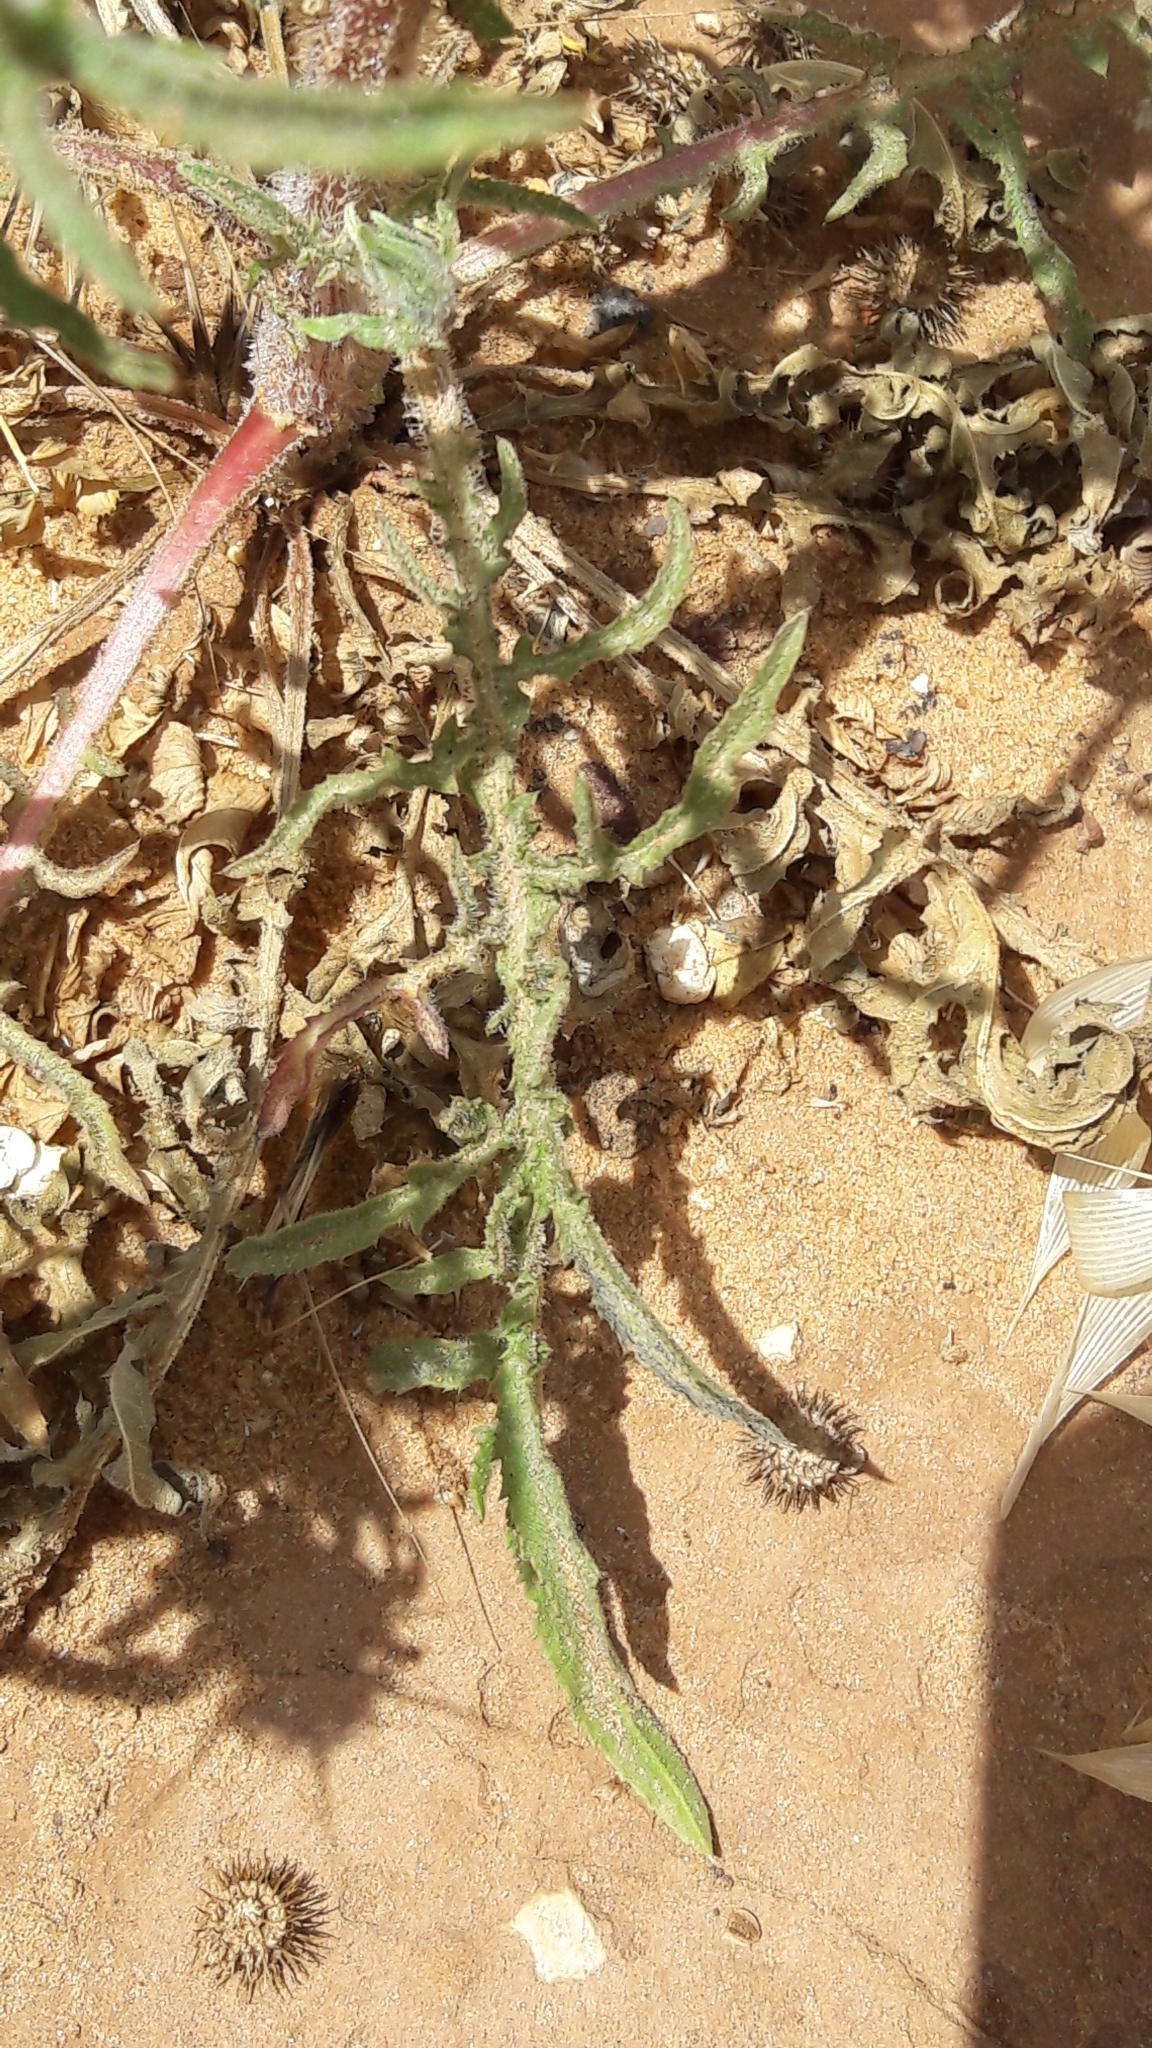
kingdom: Plantae
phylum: Tracheophyta
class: Magnoliopsida
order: Asterales
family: Asteraceae
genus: Centaurea
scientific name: Centaurea procurrens
